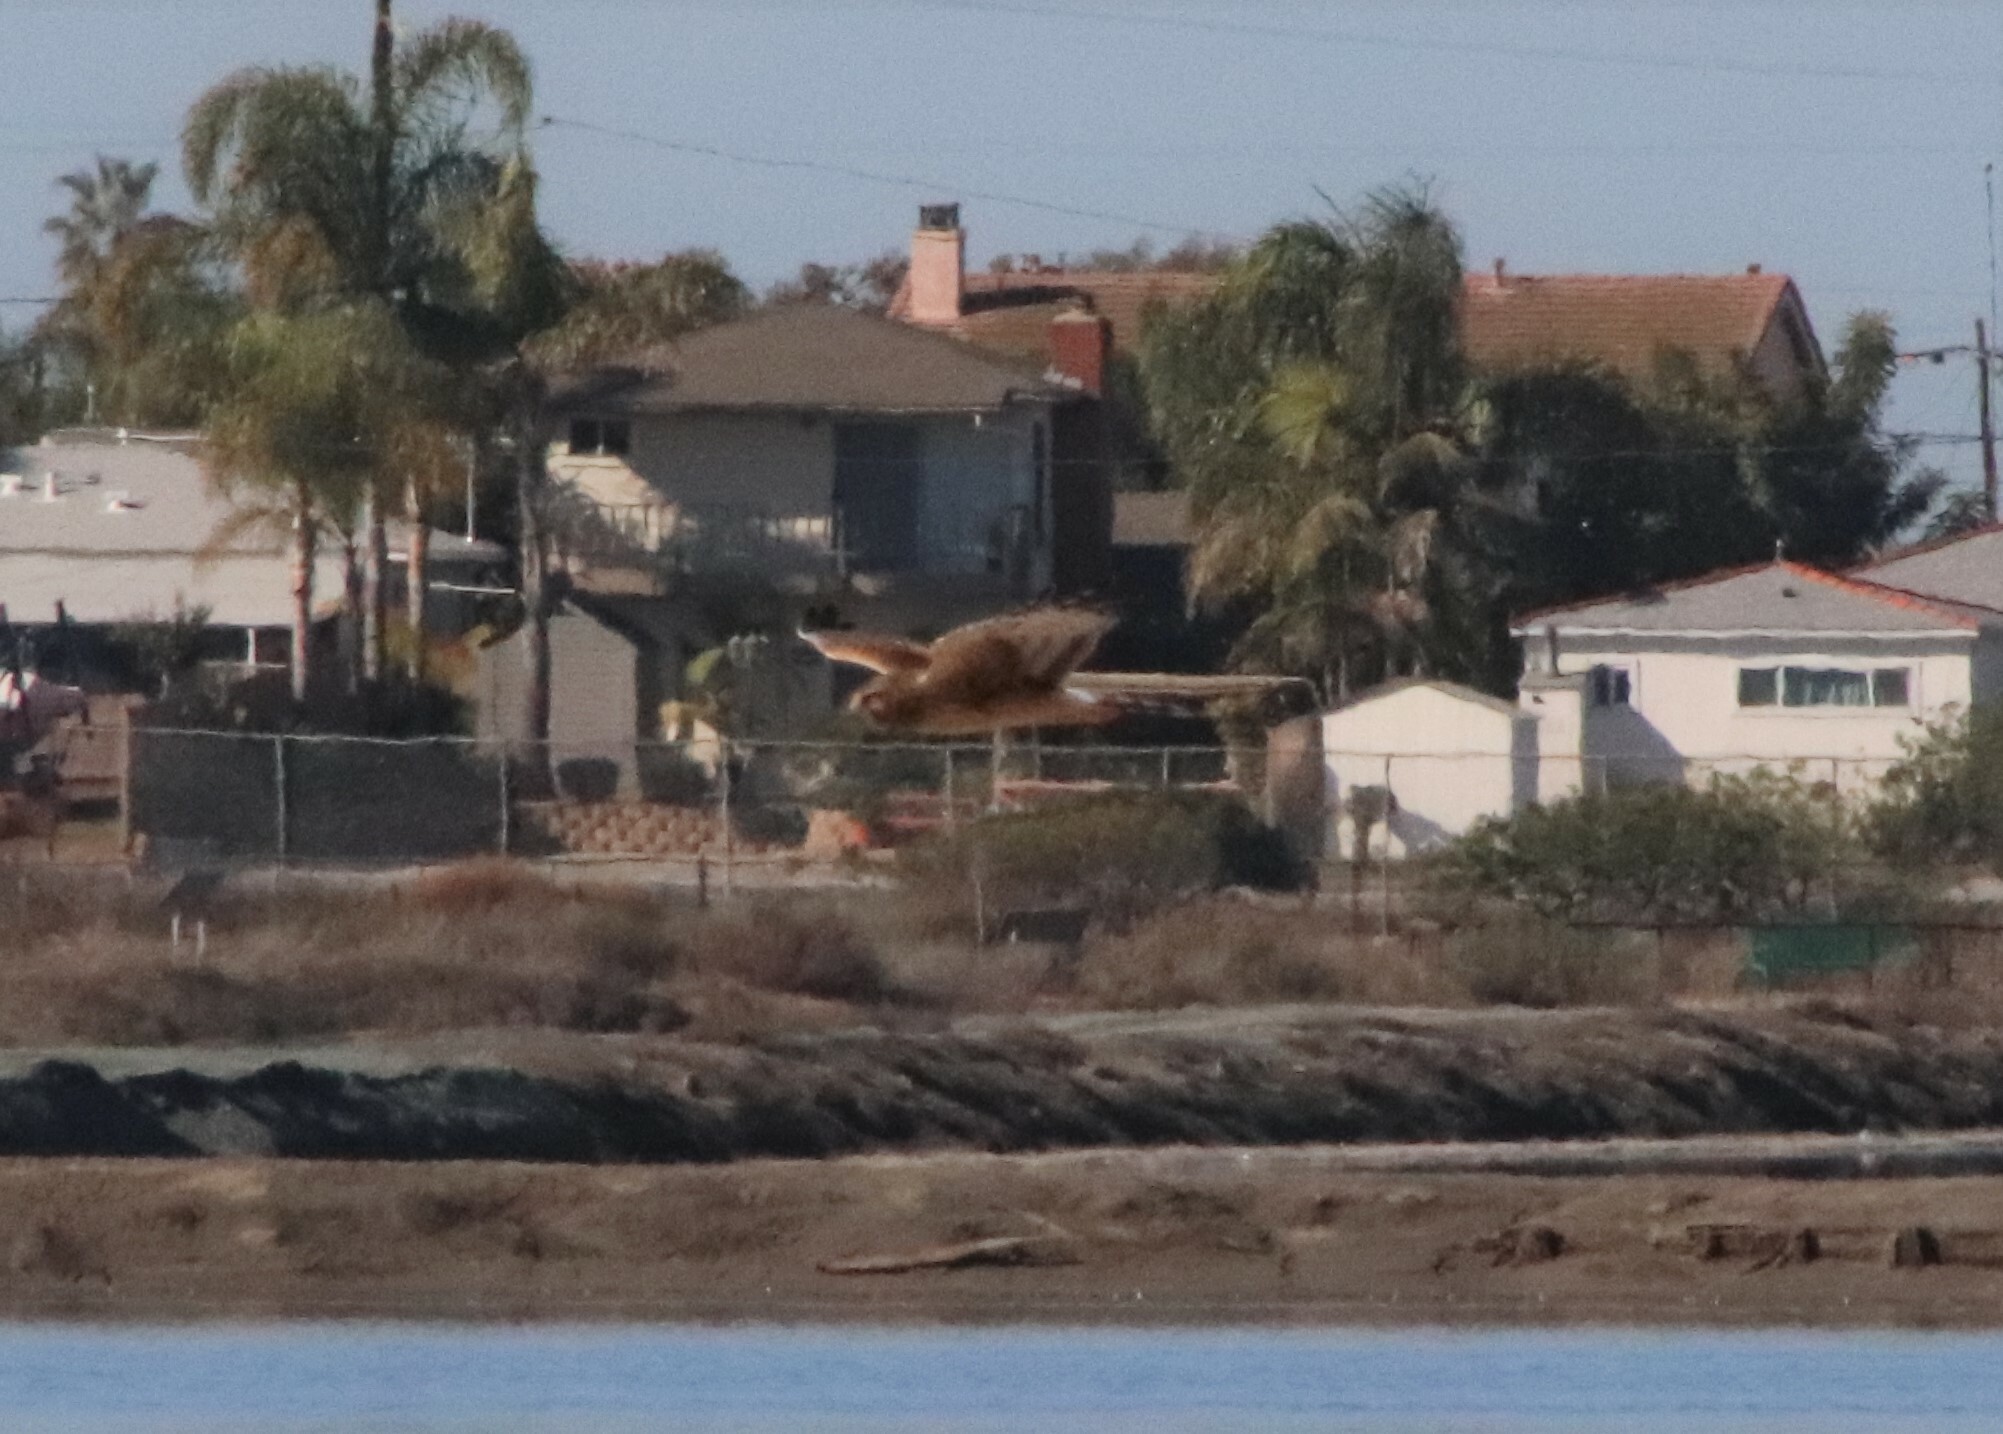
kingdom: Animalia
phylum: Chordata
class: Aves
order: Accipitriformes
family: Accipitridae
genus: Circus
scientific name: Circus cyaneus
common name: Hen harrier
